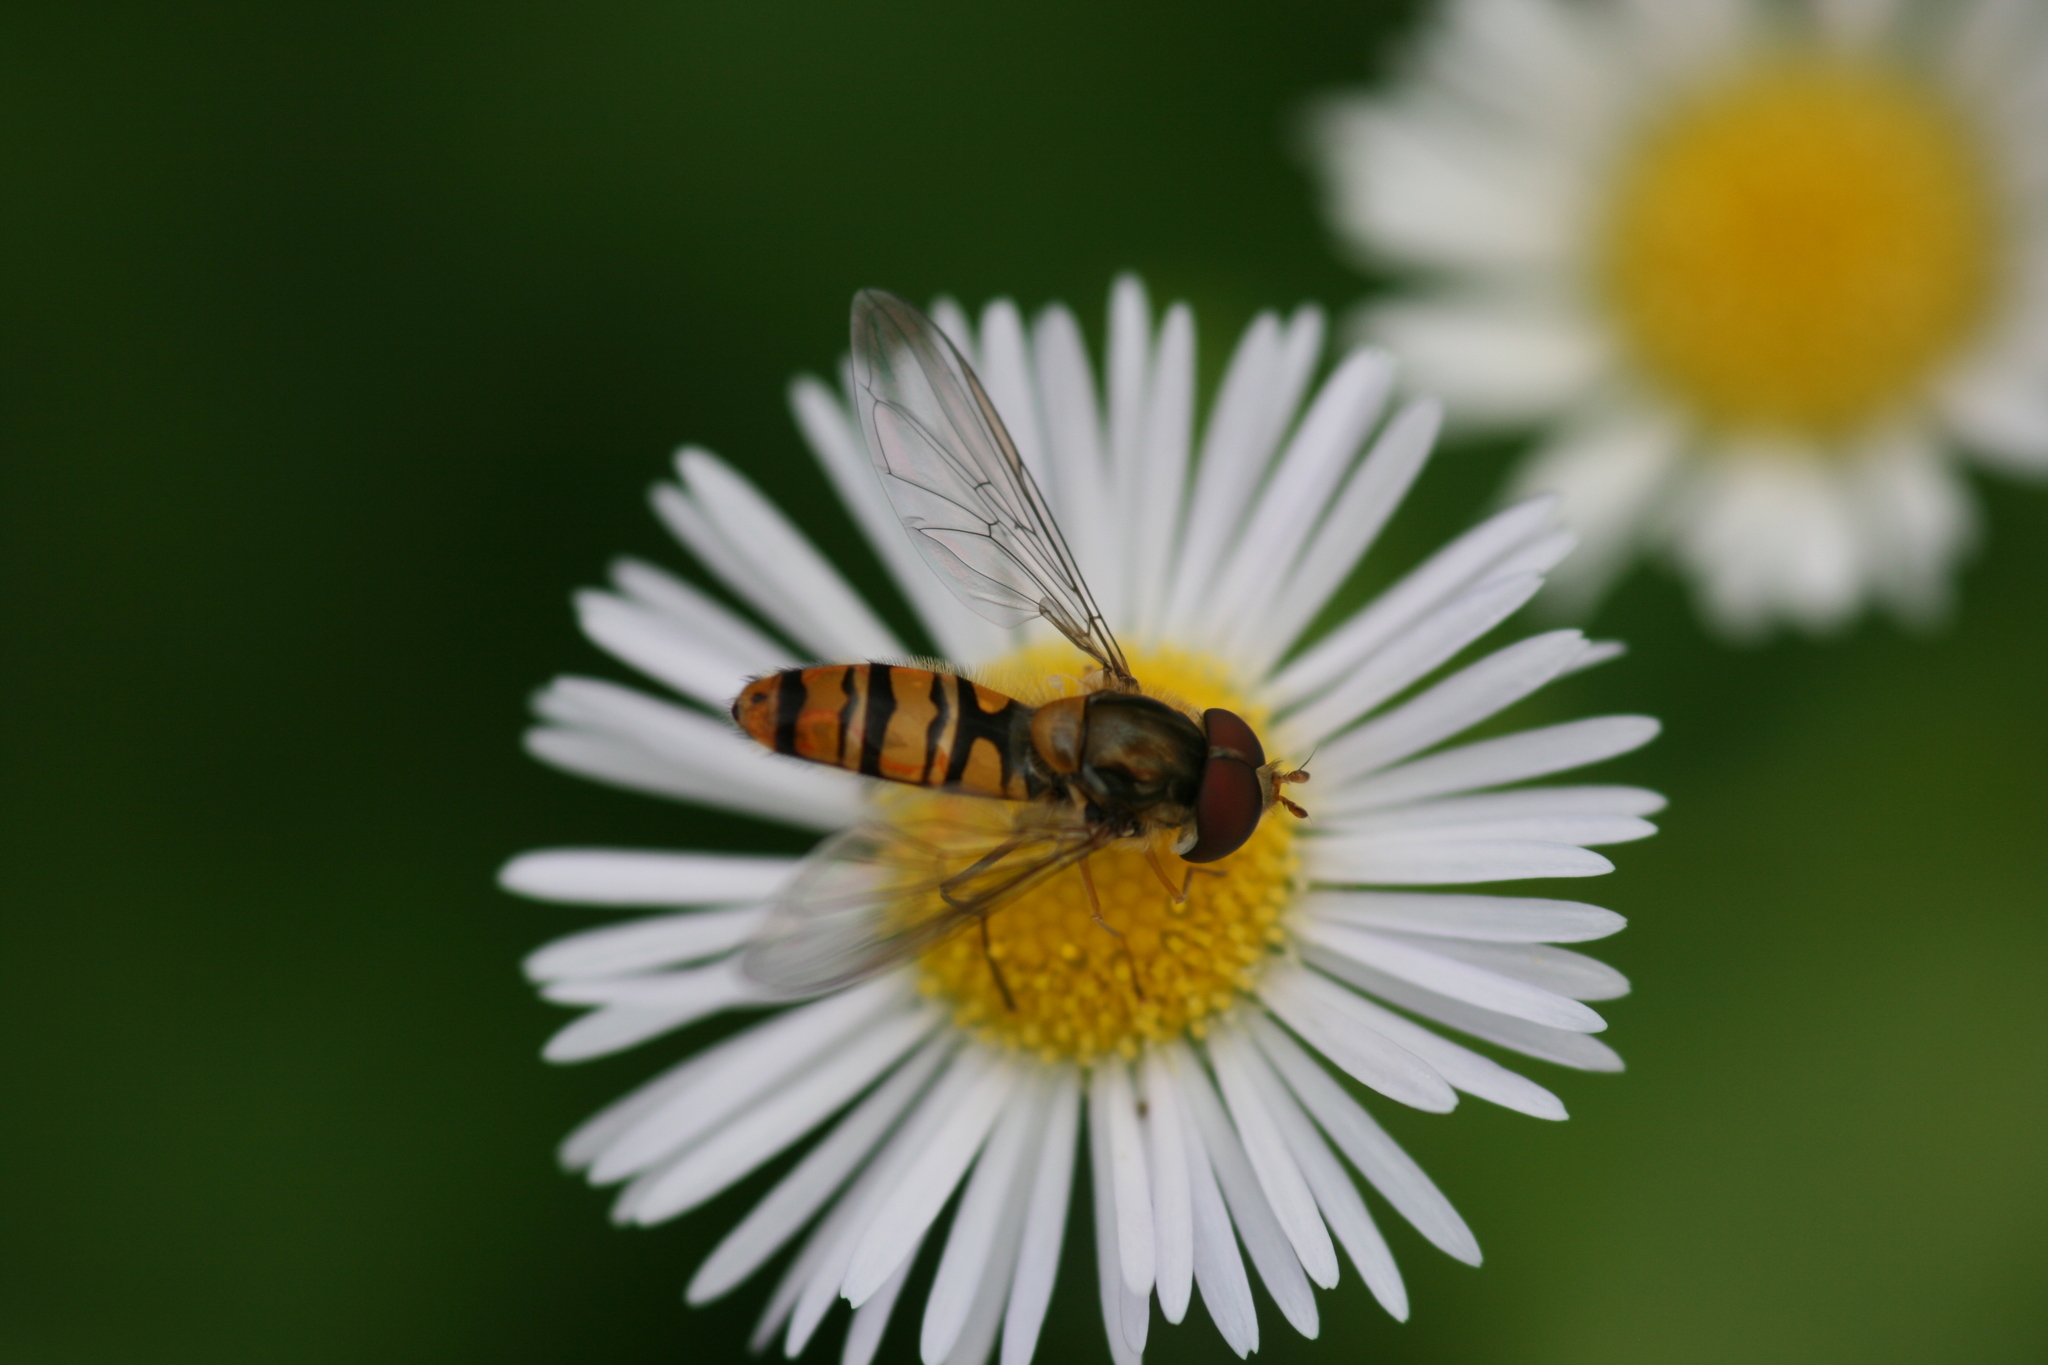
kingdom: Animalia
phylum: Arthropoda
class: Insecta
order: Diptera
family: Syrphidae
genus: Episyrphus
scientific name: Episyrphus balteatus
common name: Marmalade hoverfly
